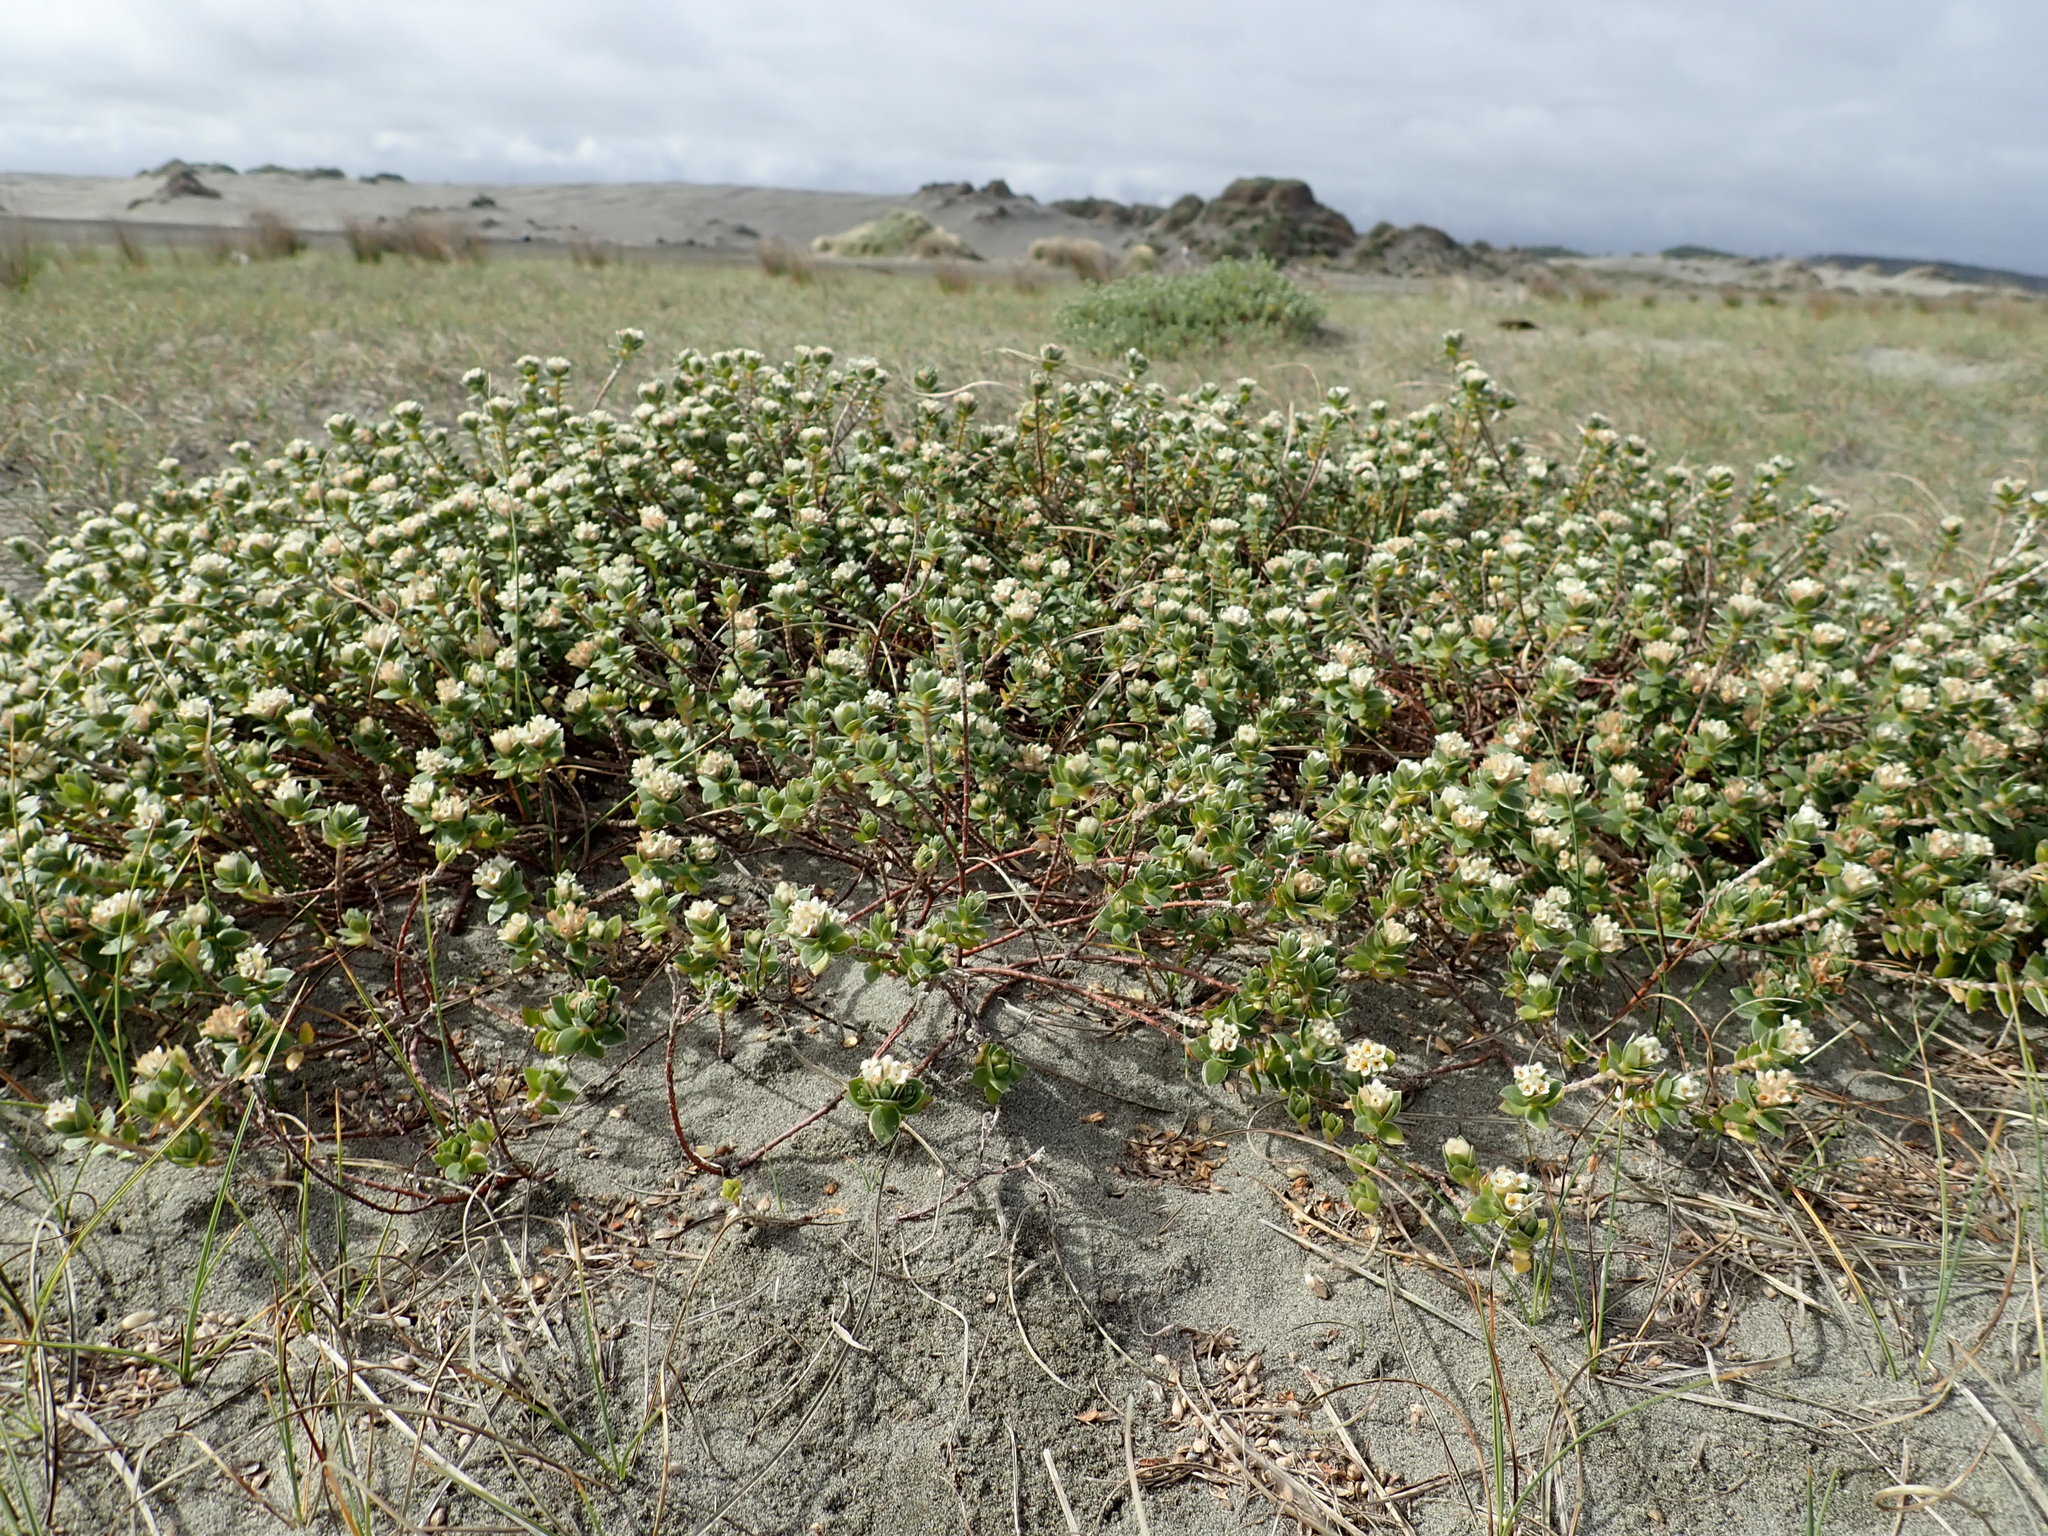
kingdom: Plantae
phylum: Tracheophyta
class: Magnoliopsida
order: Malvales
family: Thymelaeaceae
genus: Pimelea
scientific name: Pimelea villosa
